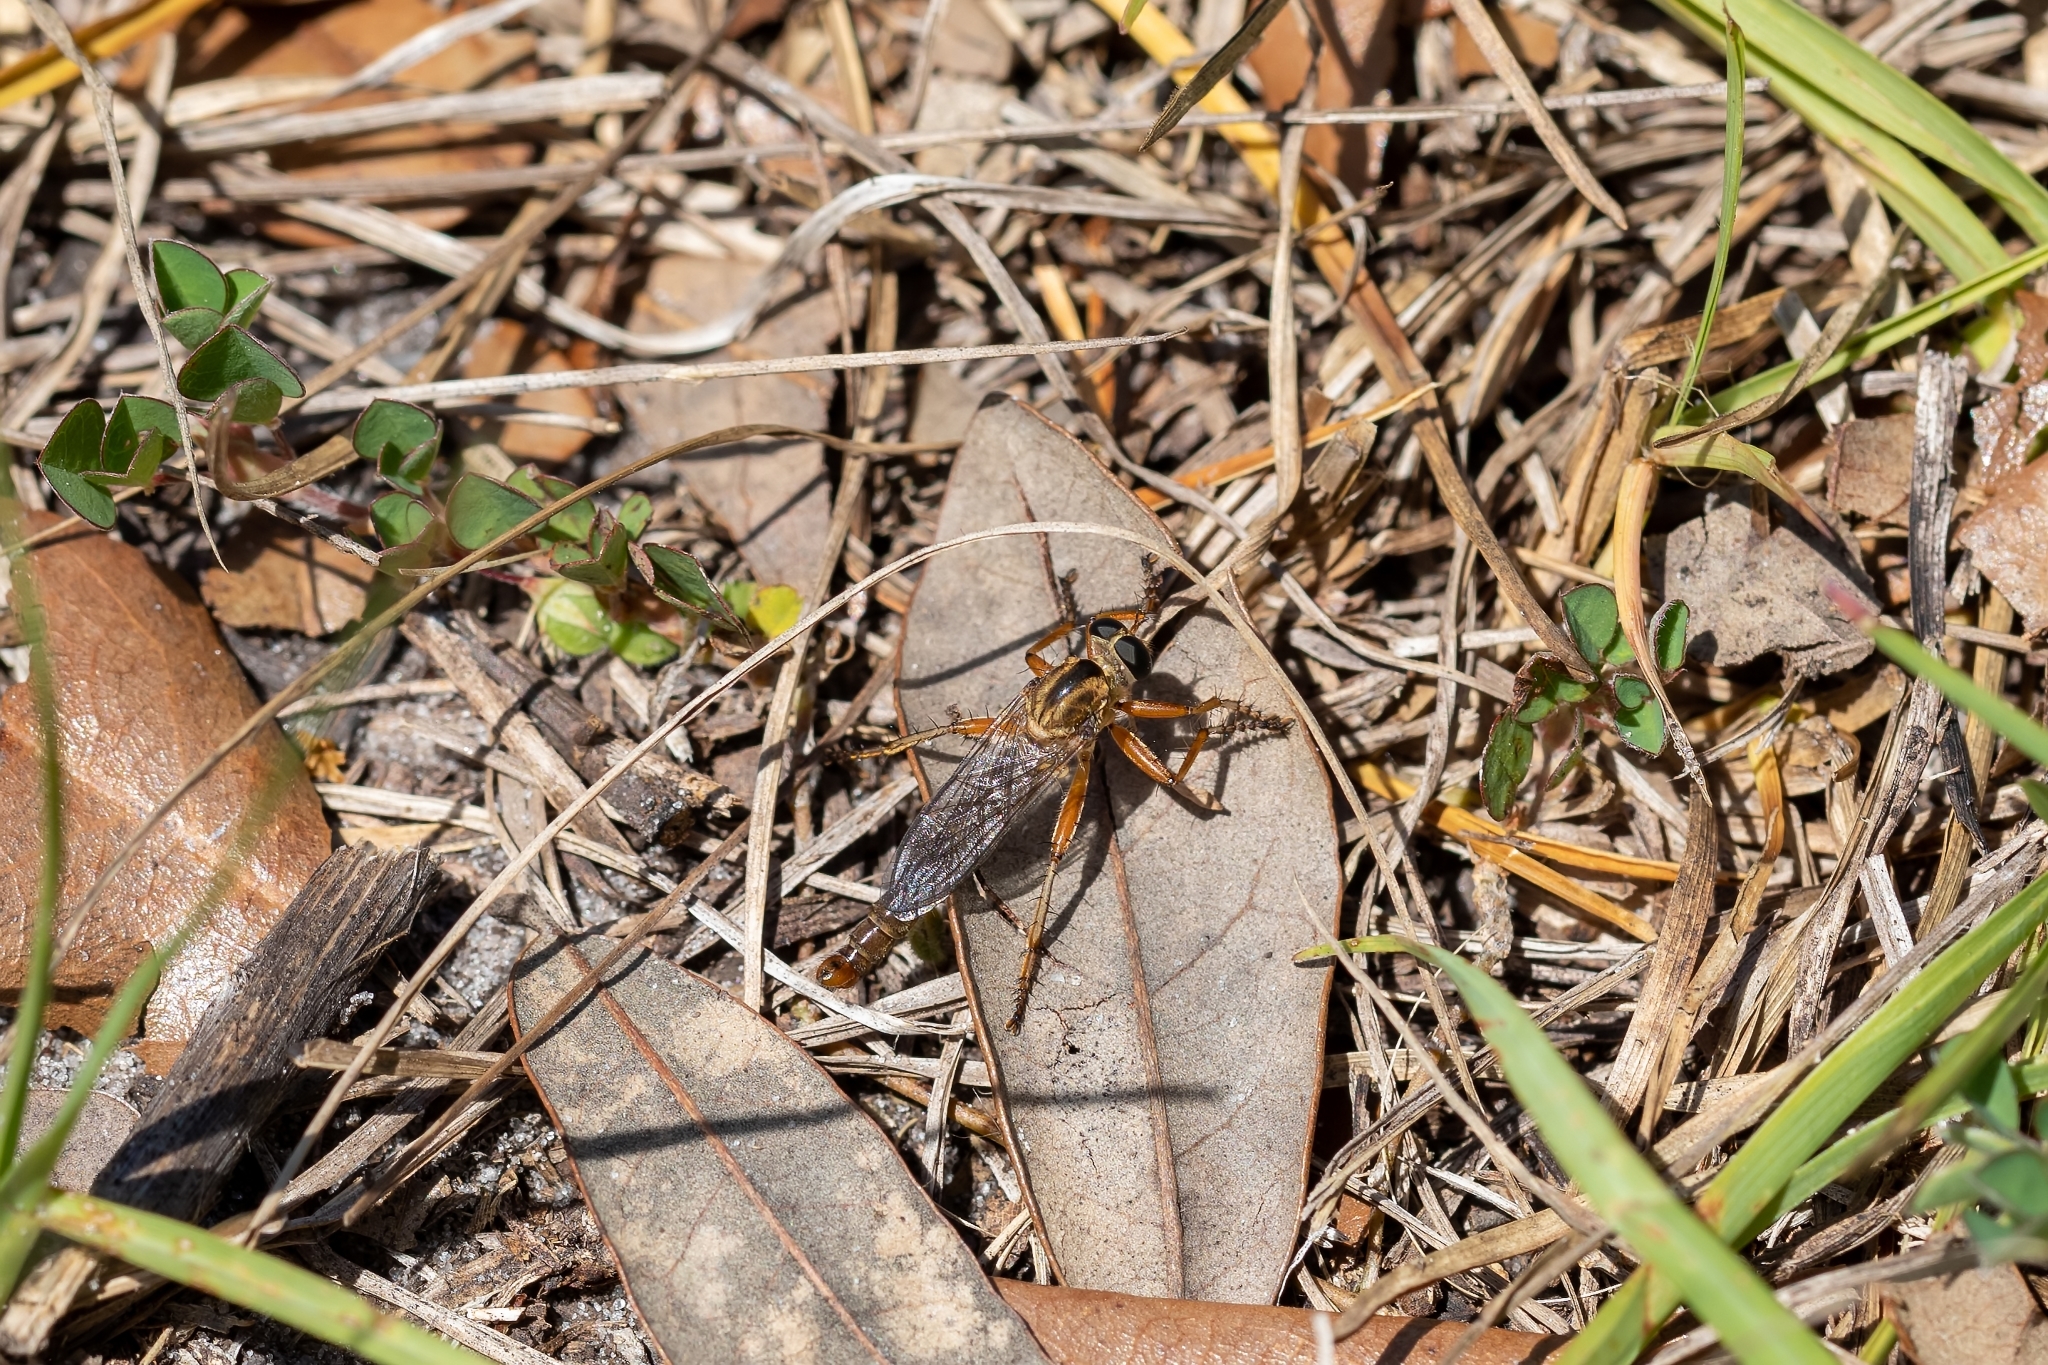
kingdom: Animalia
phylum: Arthropoda
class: Insecta
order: Diptera
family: Asilidae
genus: Polacantha
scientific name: Polacantha gracilis
